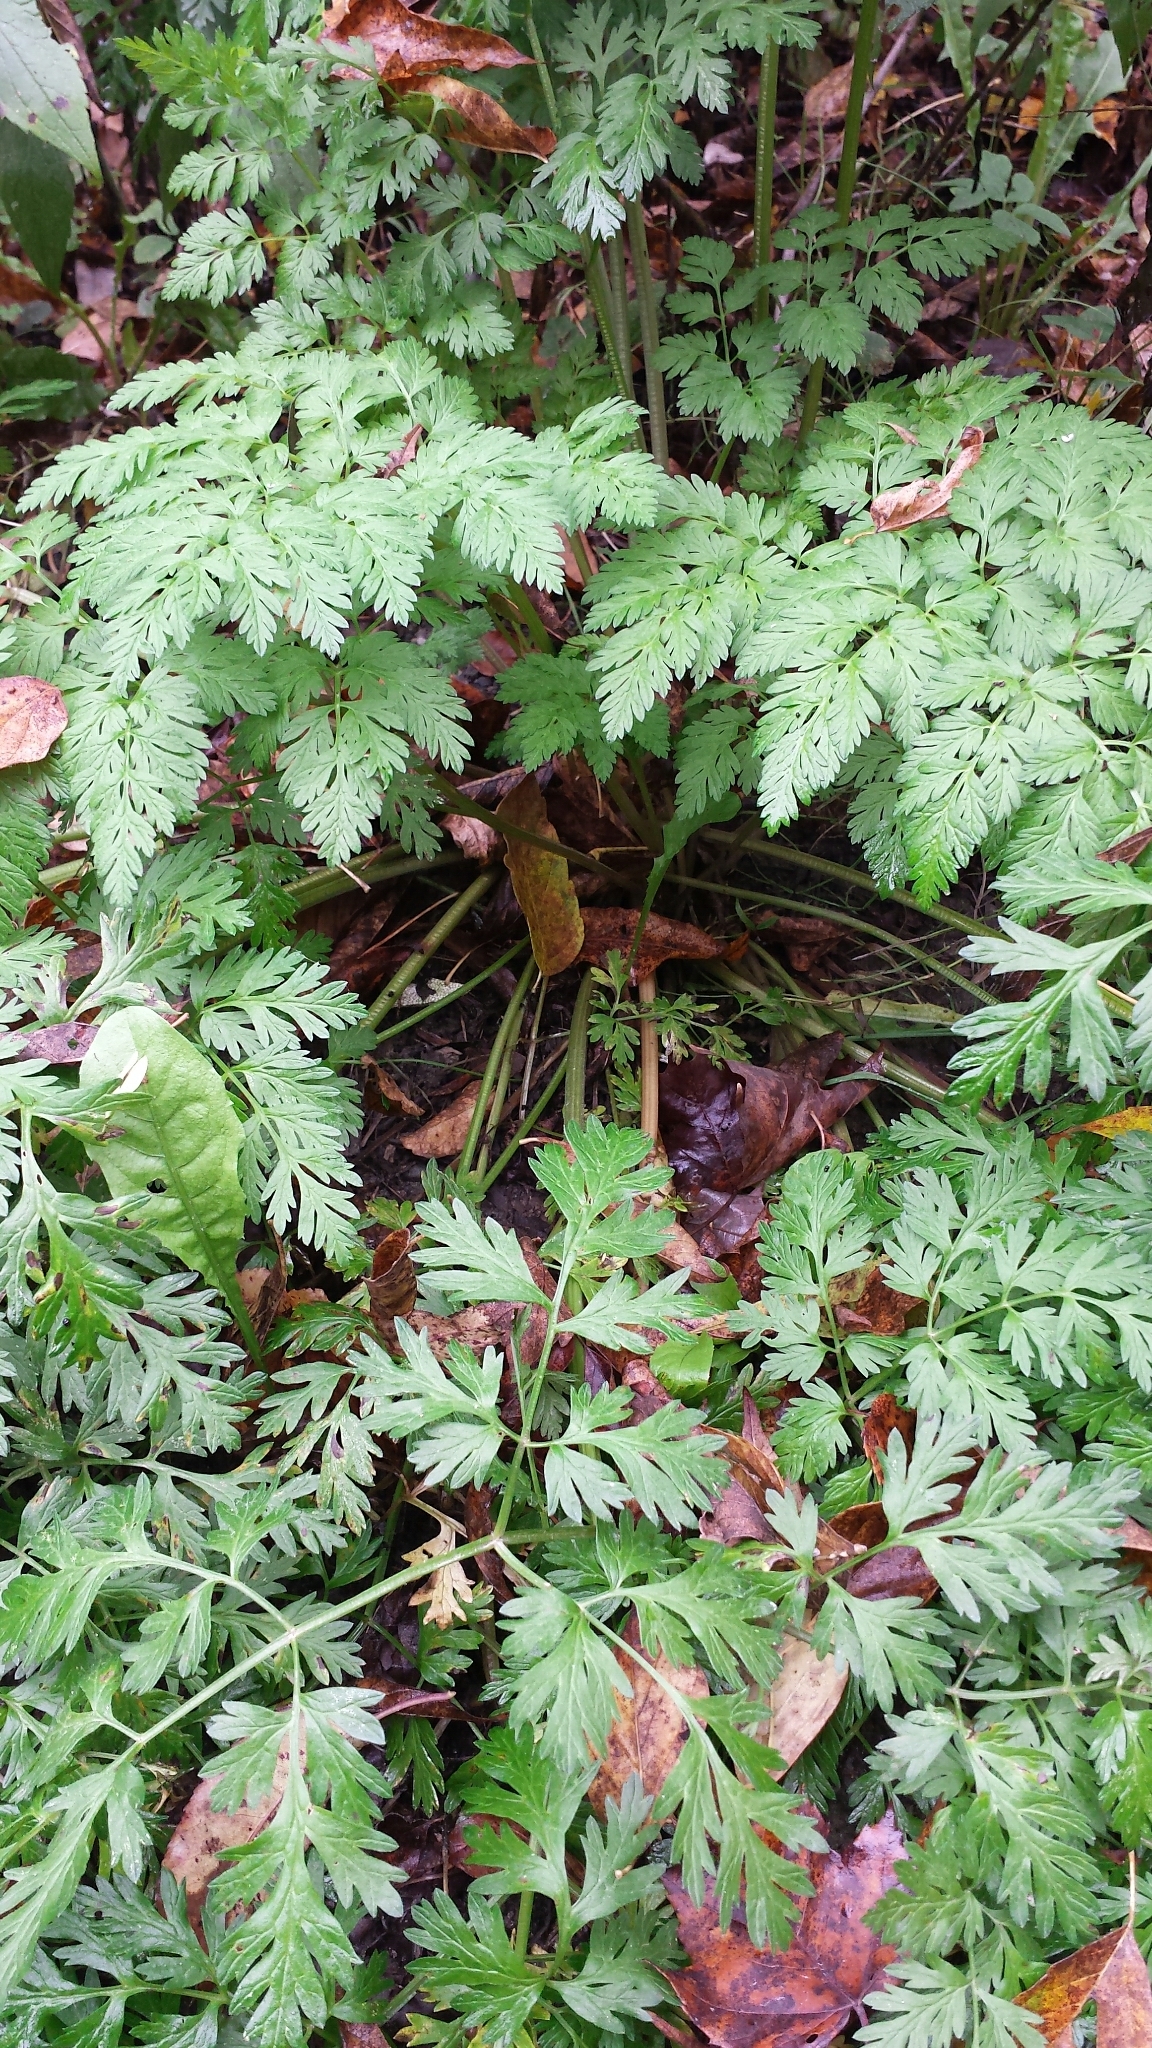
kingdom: Plantae
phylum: Tracheophyta
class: Magnoliopsida
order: Apiales
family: Apiaceae
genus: Anthriscus
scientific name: Anthriscus sylvestris
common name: Cow parsley
